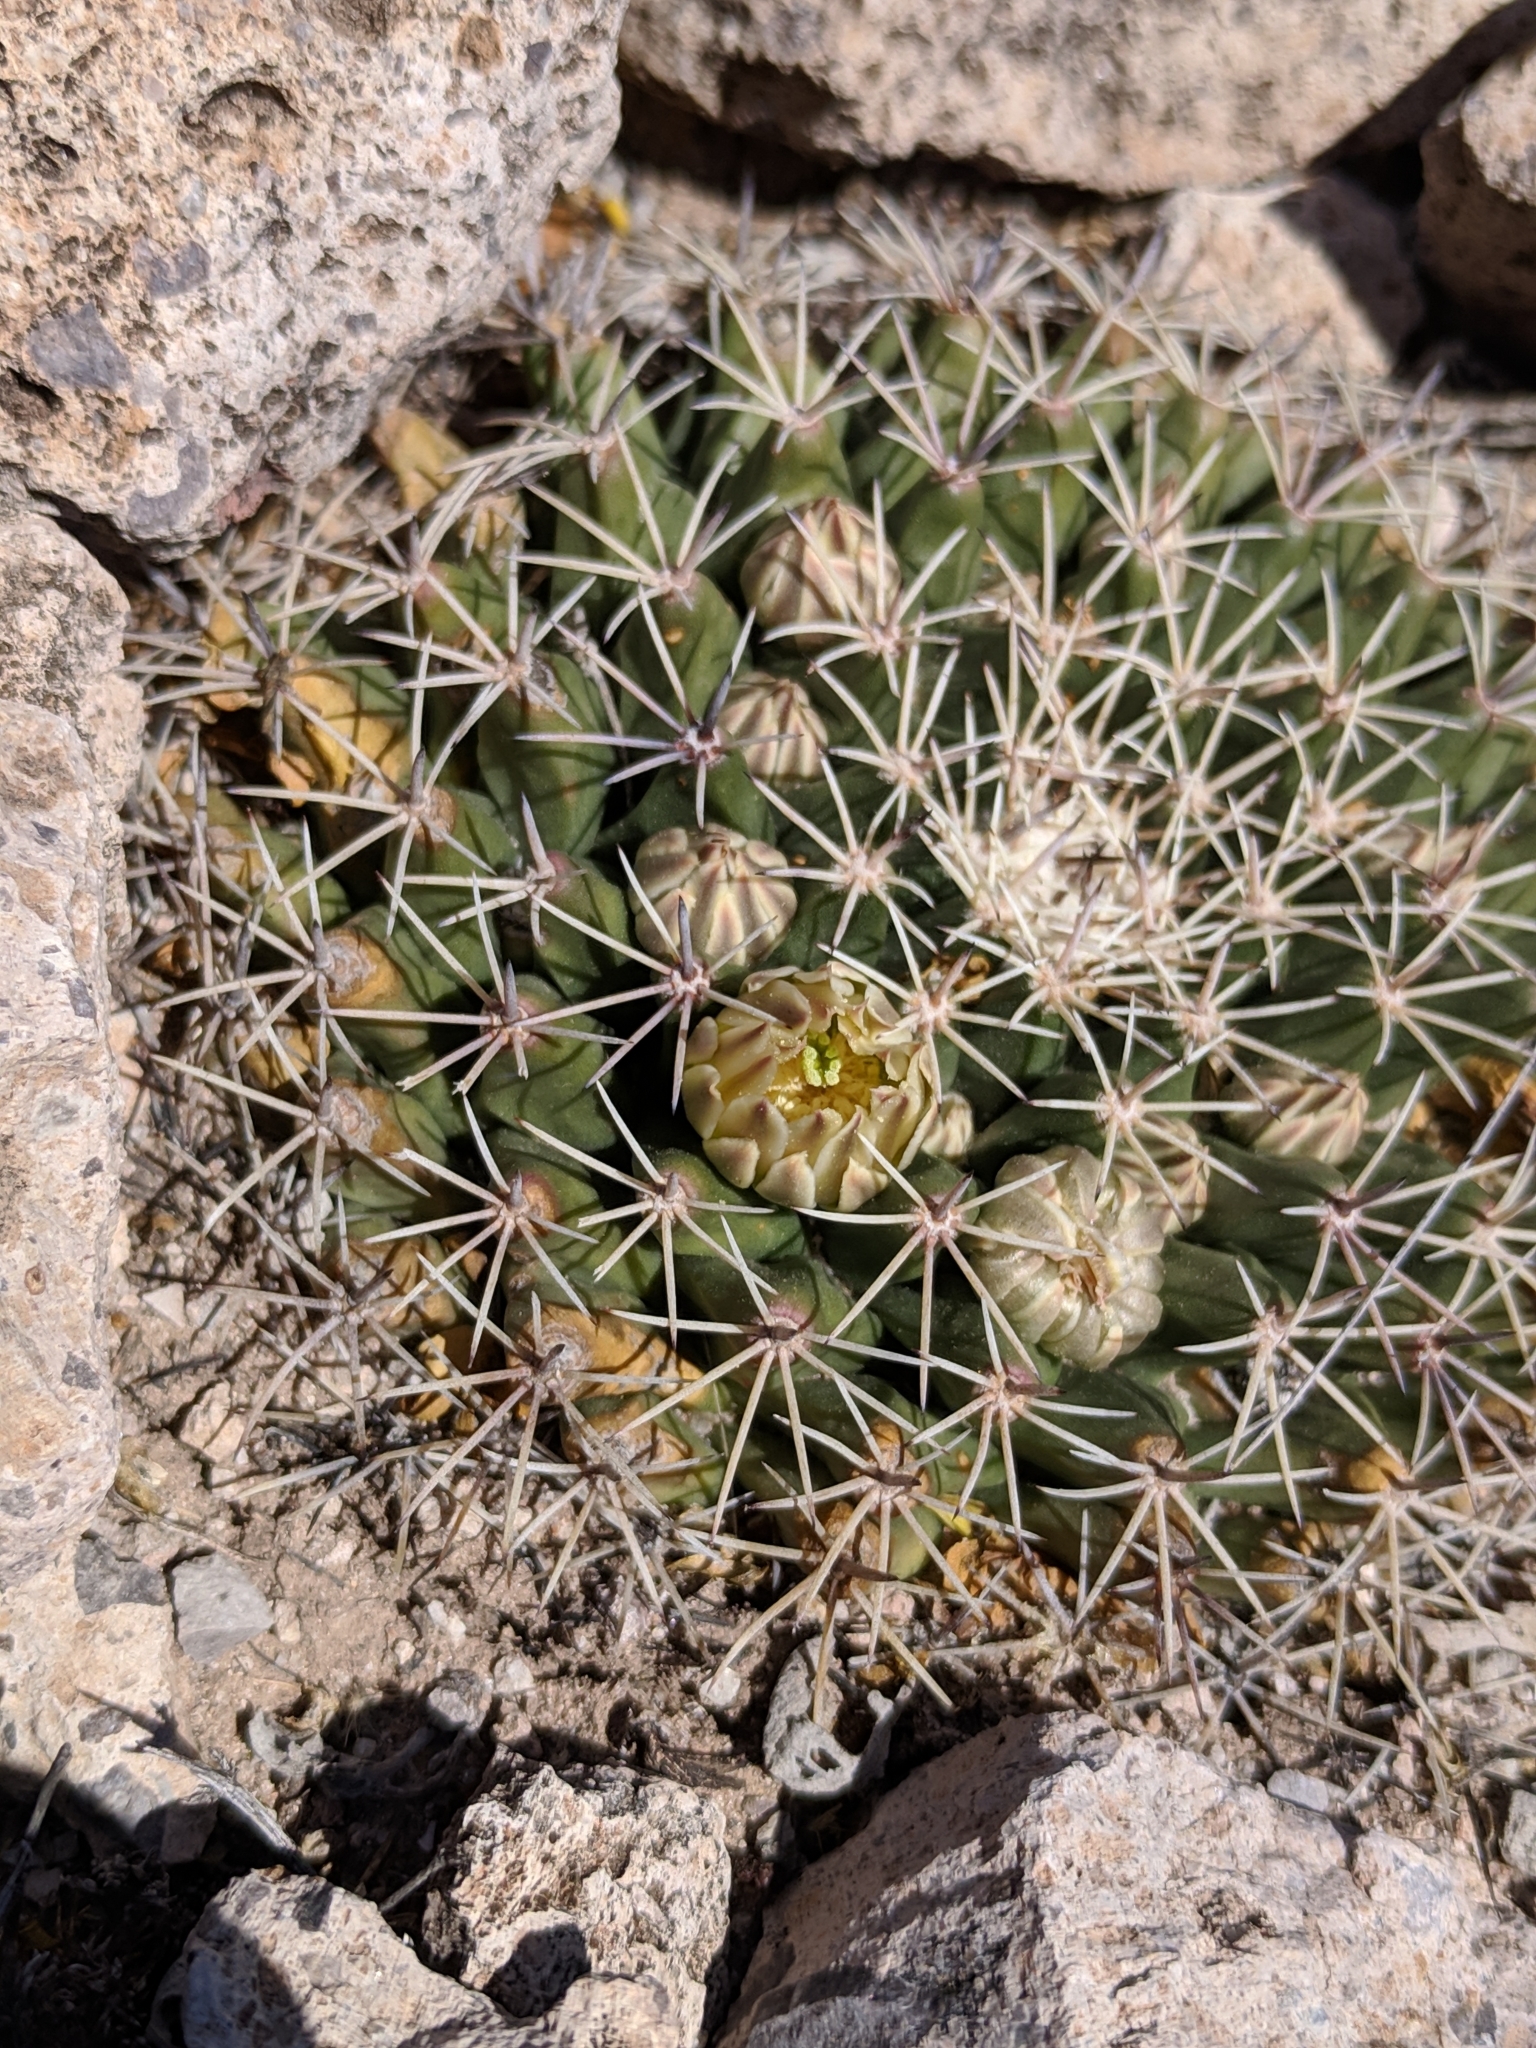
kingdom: Plantae
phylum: Tracheophyta
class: Magnoliopsida
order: Caryophyllales
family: Cactaceae
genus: Mammillaria
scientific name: Mammillaria heyderi
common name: Little nipple cactus
